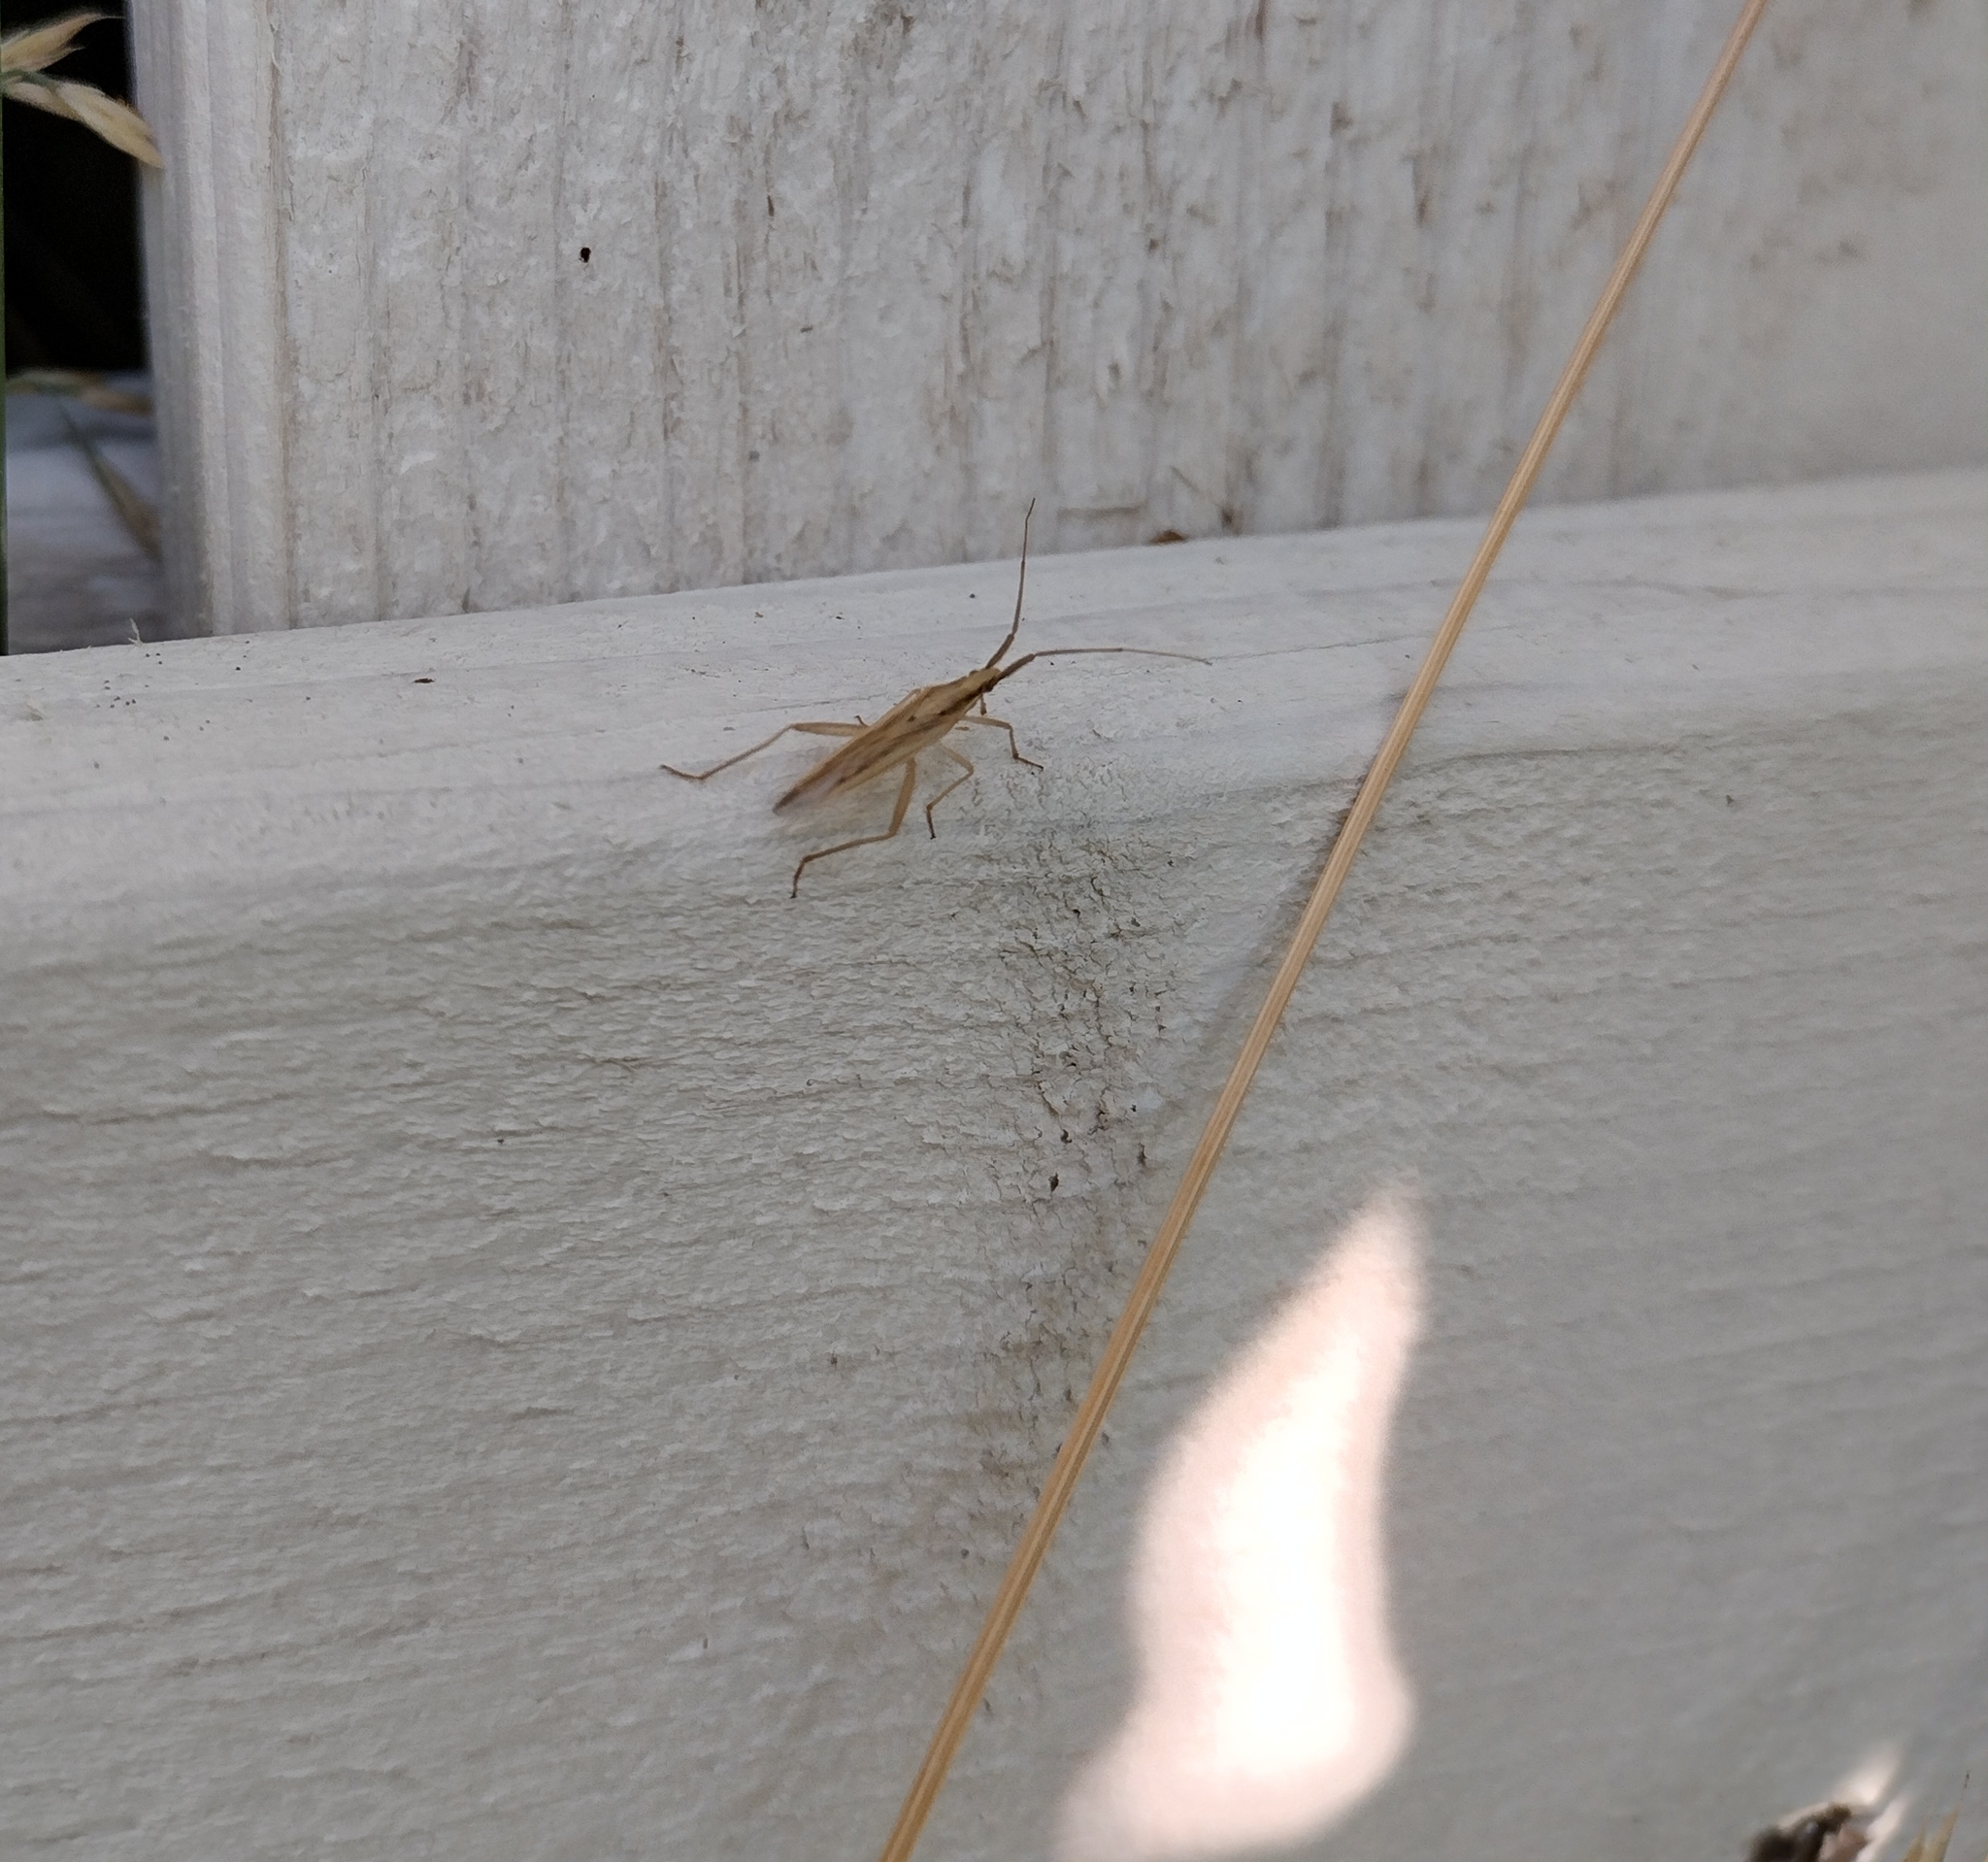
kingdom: Animalia
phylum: Arthropoda
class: Insecta
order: Hemiptera
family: Miridae
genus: Stenodema
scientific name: Stenodema laevigata
